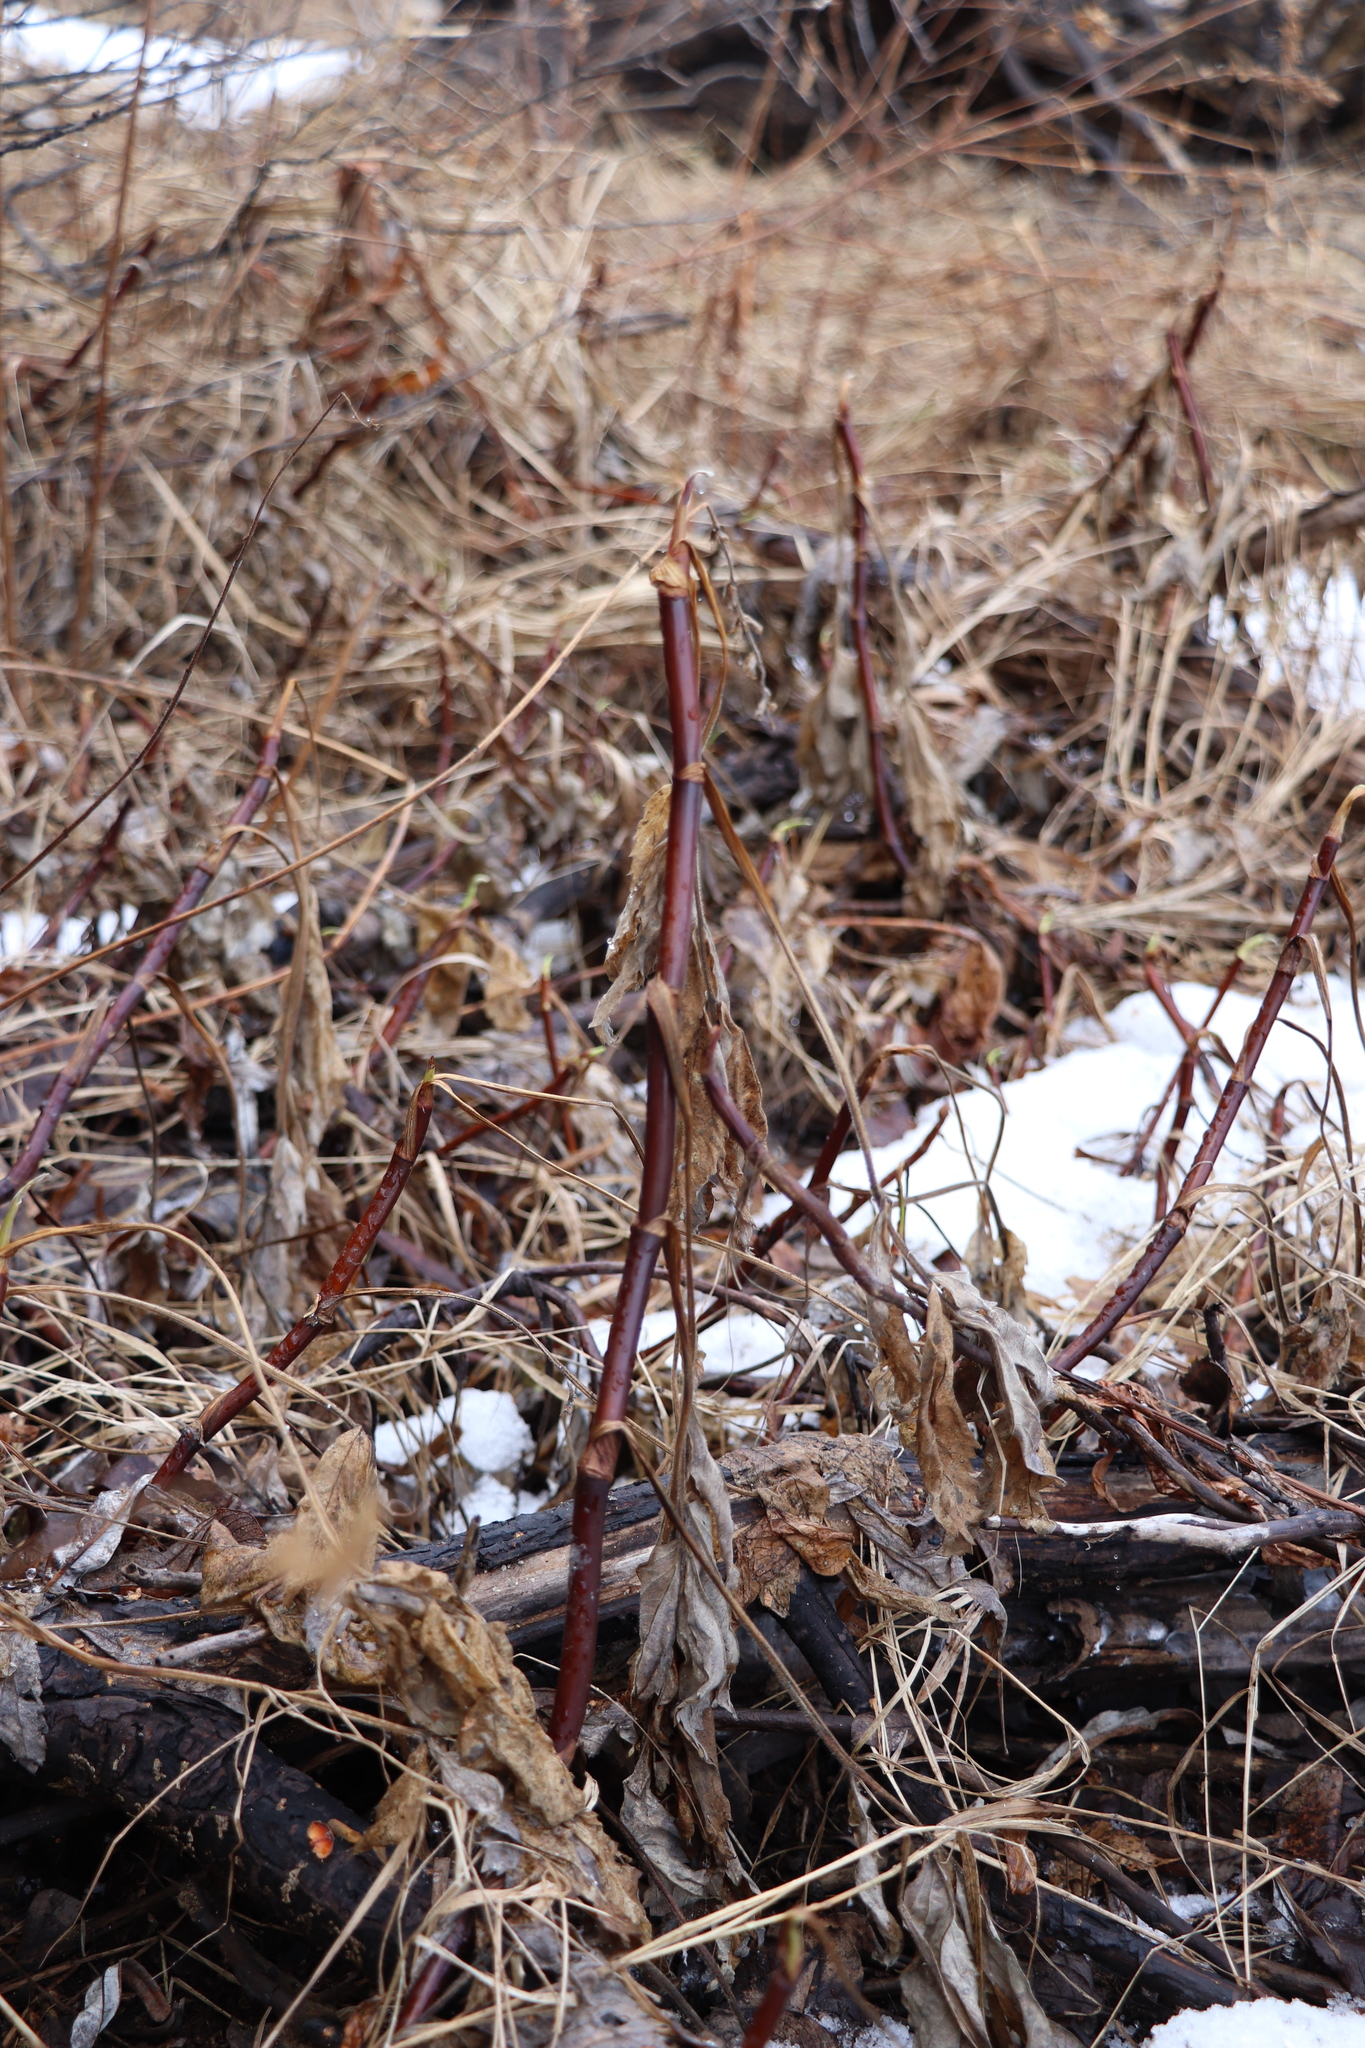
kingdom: Plantae
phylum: Tracheophyta
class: Magnoliopsida
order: Rosales
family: Rosaceae
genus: Comarum
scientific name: Comarum palustre
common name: Marsh cinquefoil
